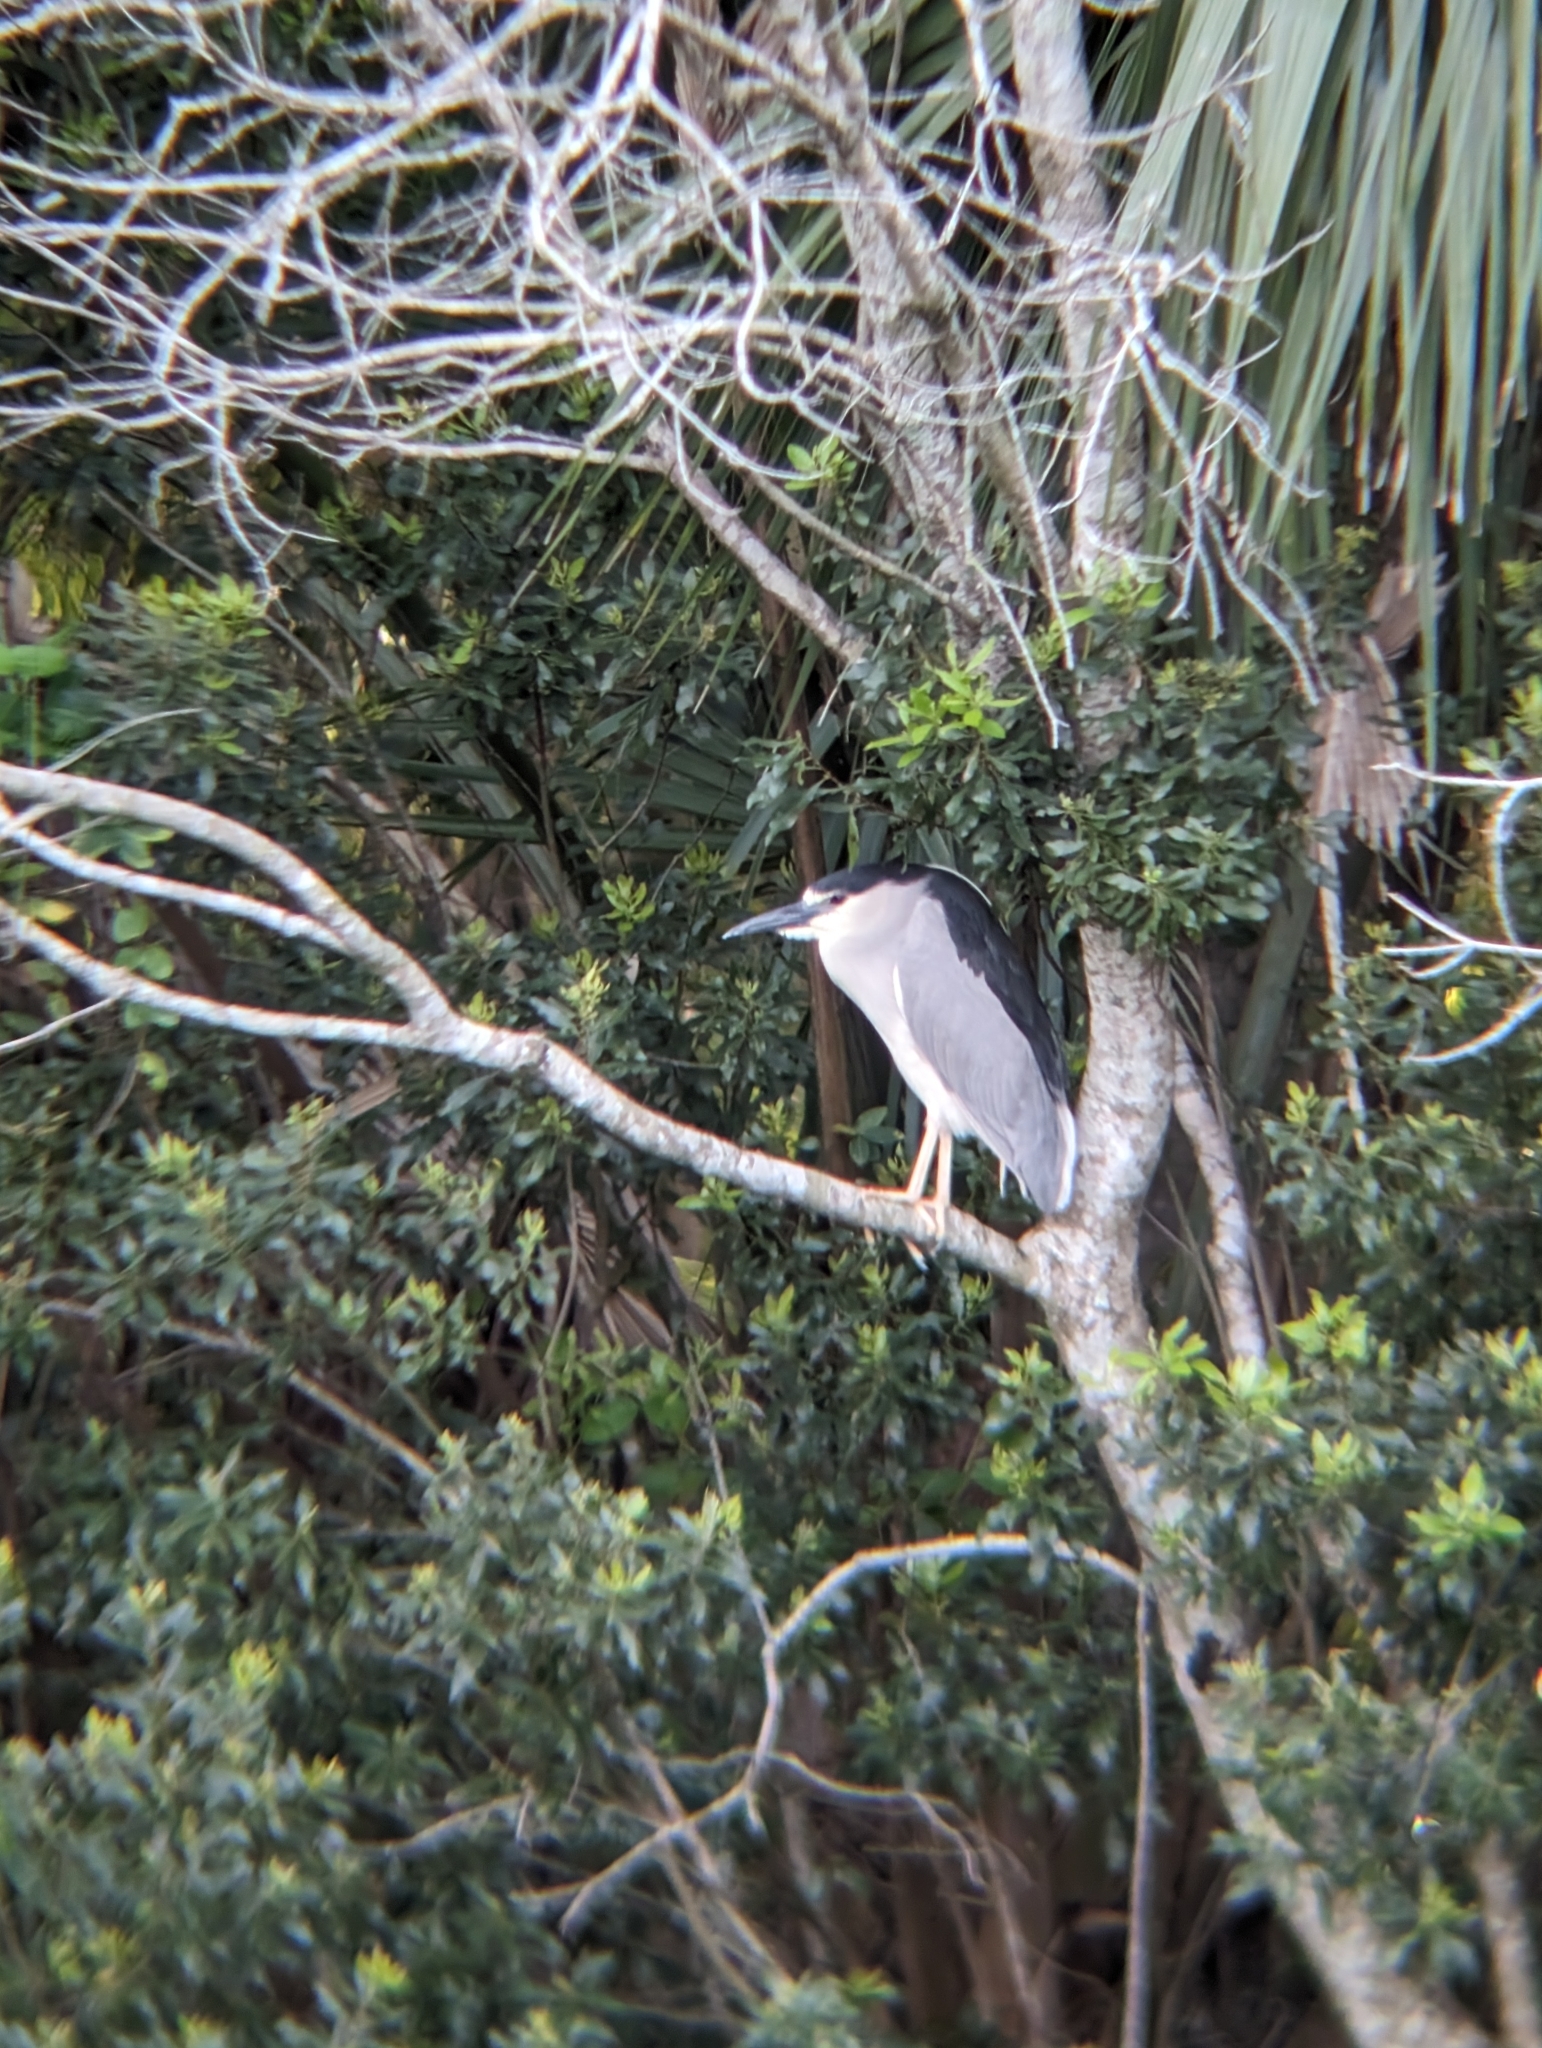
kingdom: Animalia
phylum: Chordata
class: Aves
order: Pelecaniformes
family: Ardeidae
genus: Nycticorax
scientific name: Nycticorax nycticorax
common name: Black-crowned night heron
